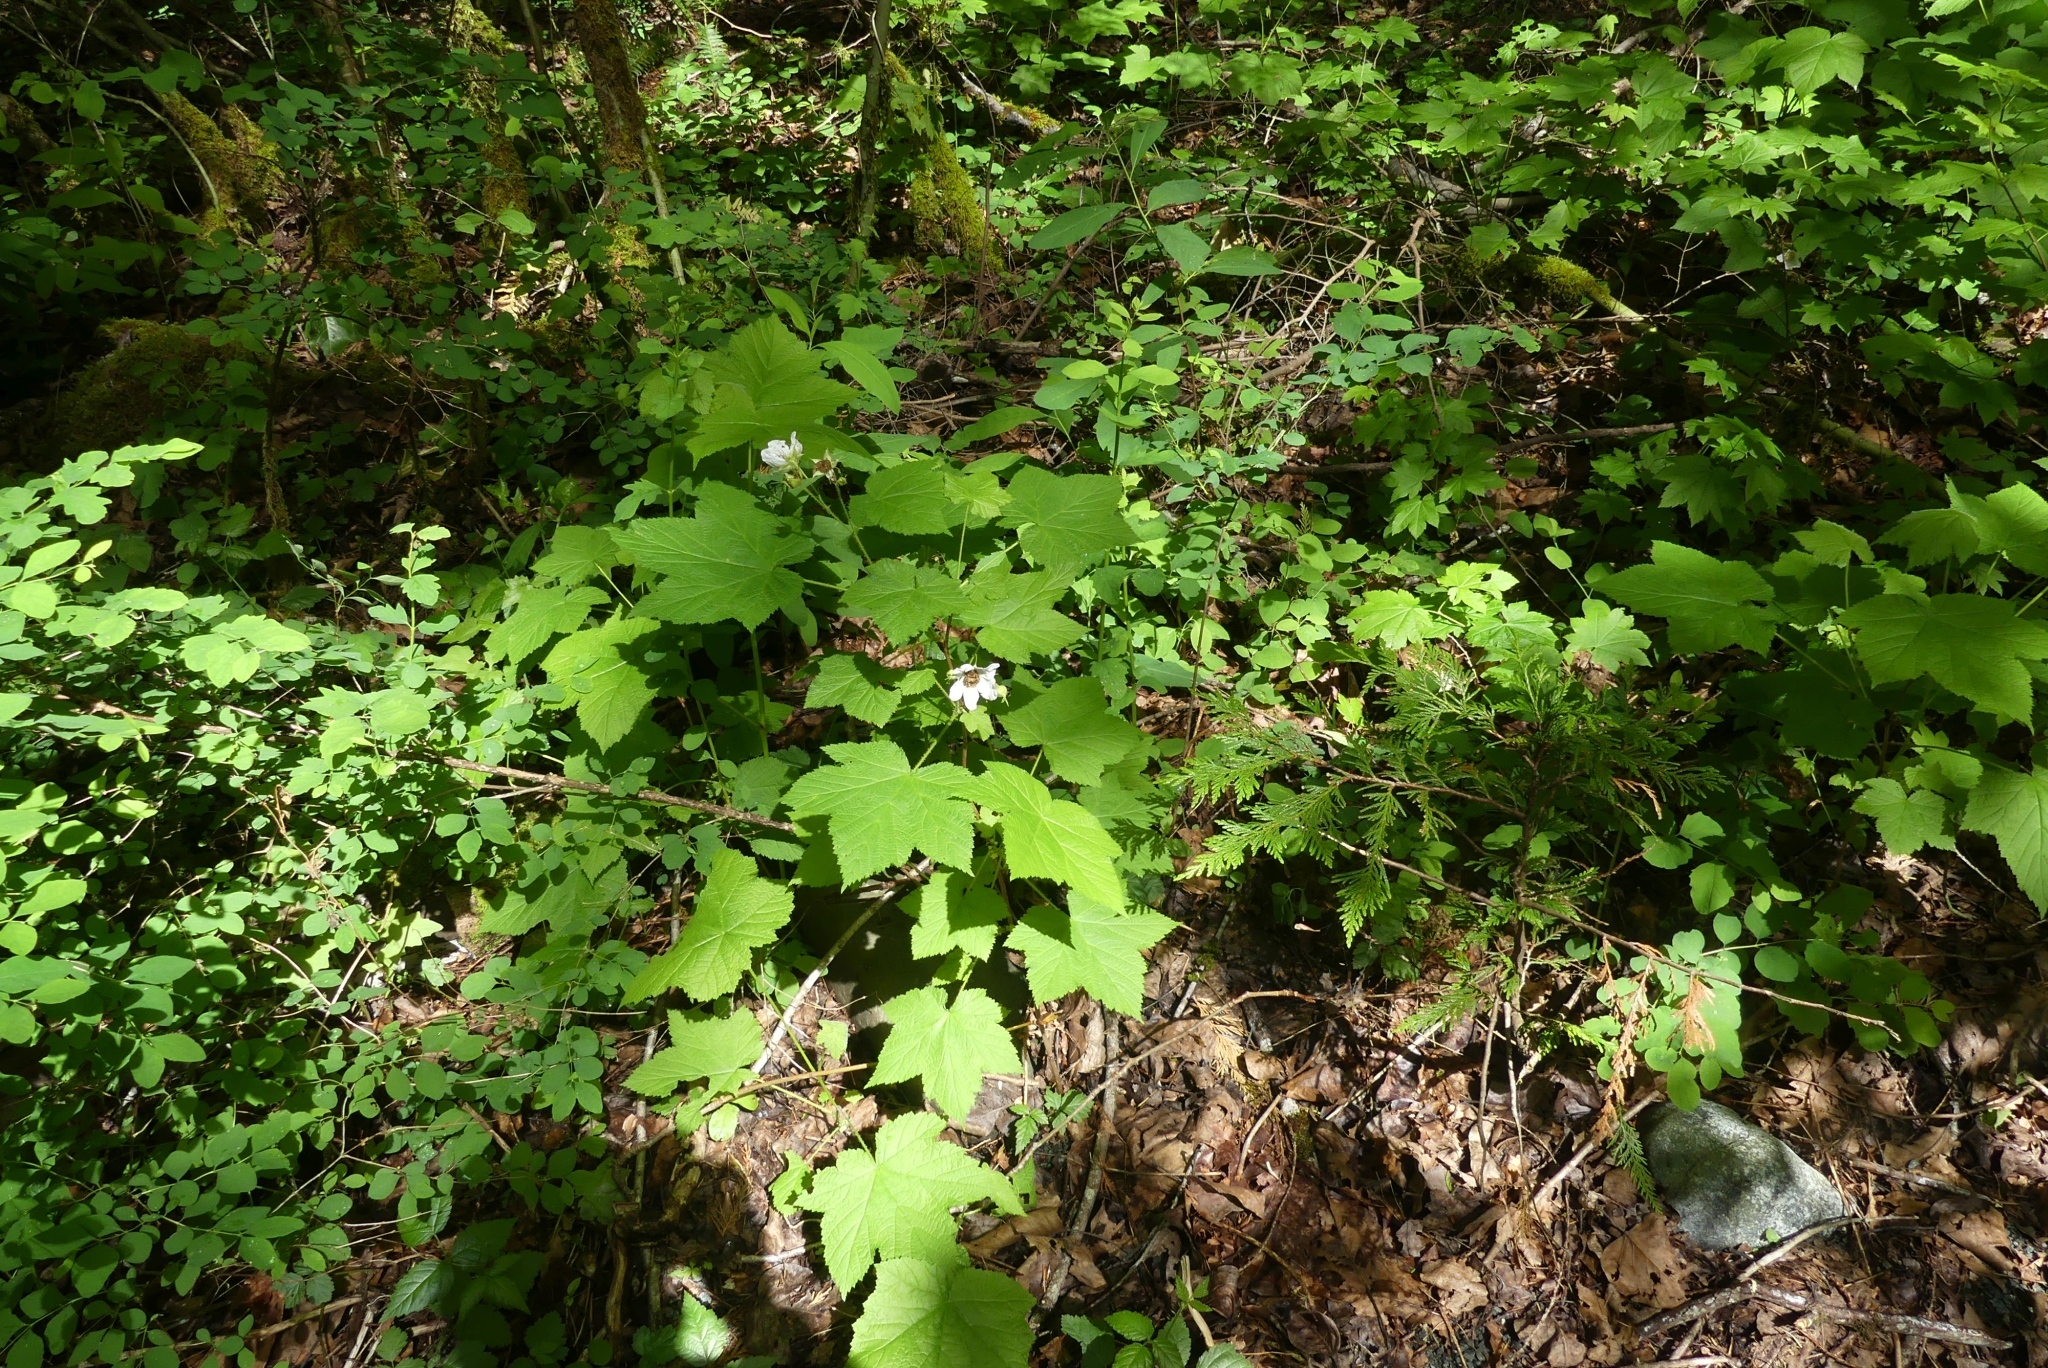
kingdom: Plantae
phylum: Tracheophyta
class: Magnoliopsida
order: Rosales
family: Rosaceae
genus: Rubus
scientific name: Rubus parviflorus
